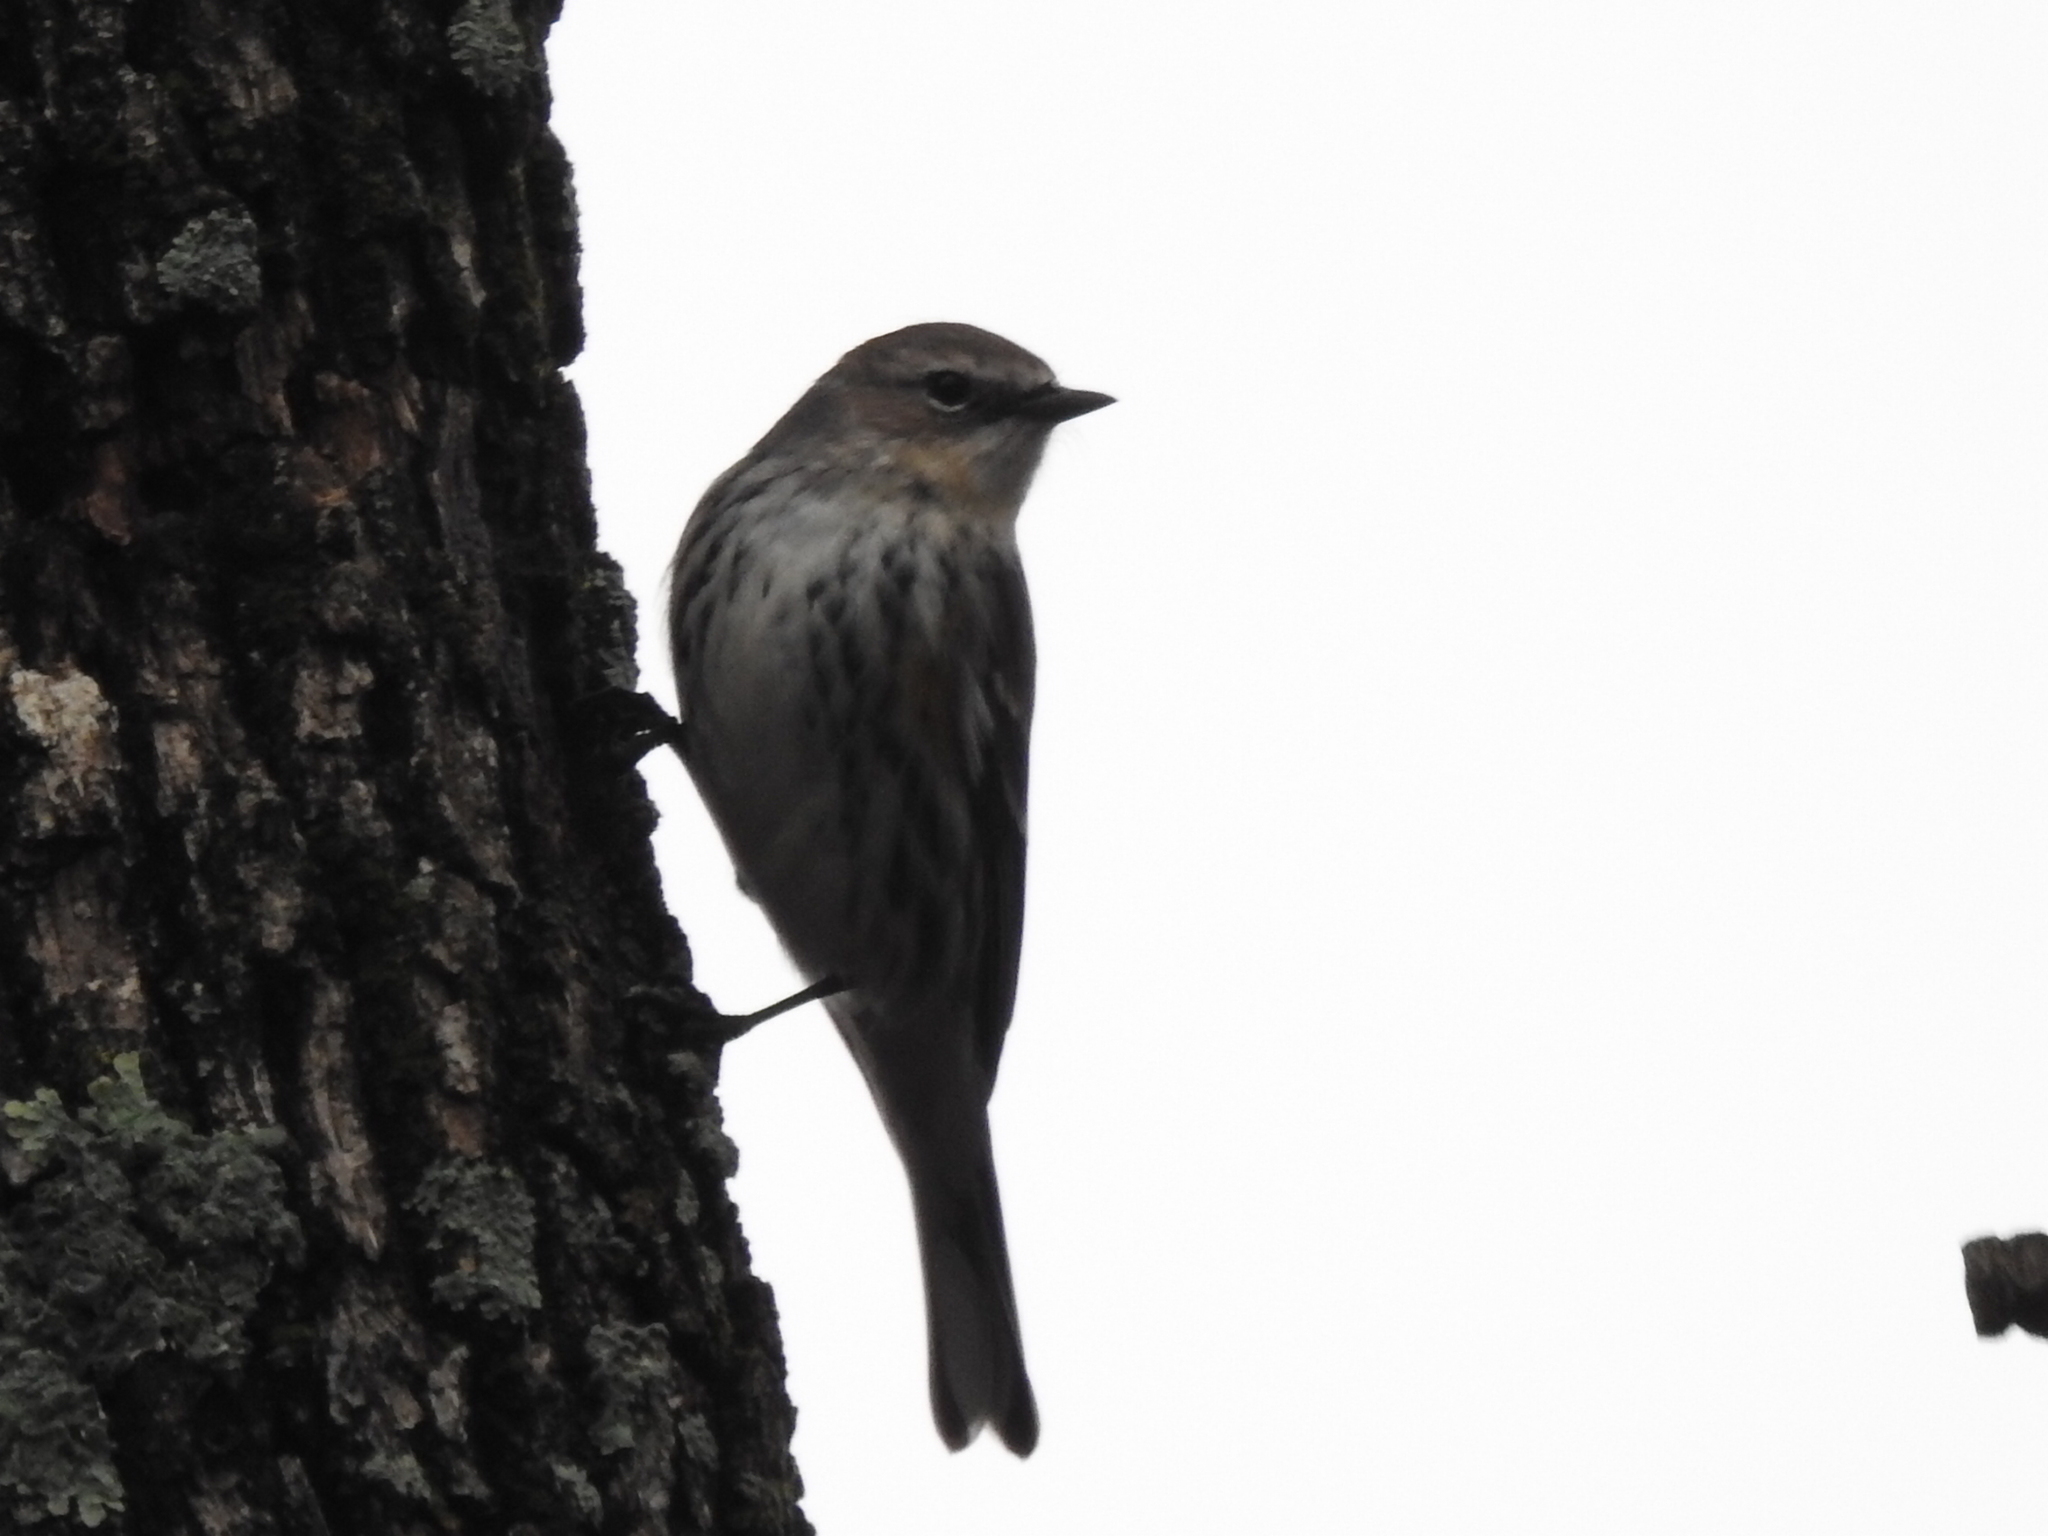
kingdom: Animalia
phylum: Chordata
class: Aves
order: Passeriformes
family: Parulidae
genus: Setophaga
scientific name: Setophaga coronata
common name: Myrtle warbler
